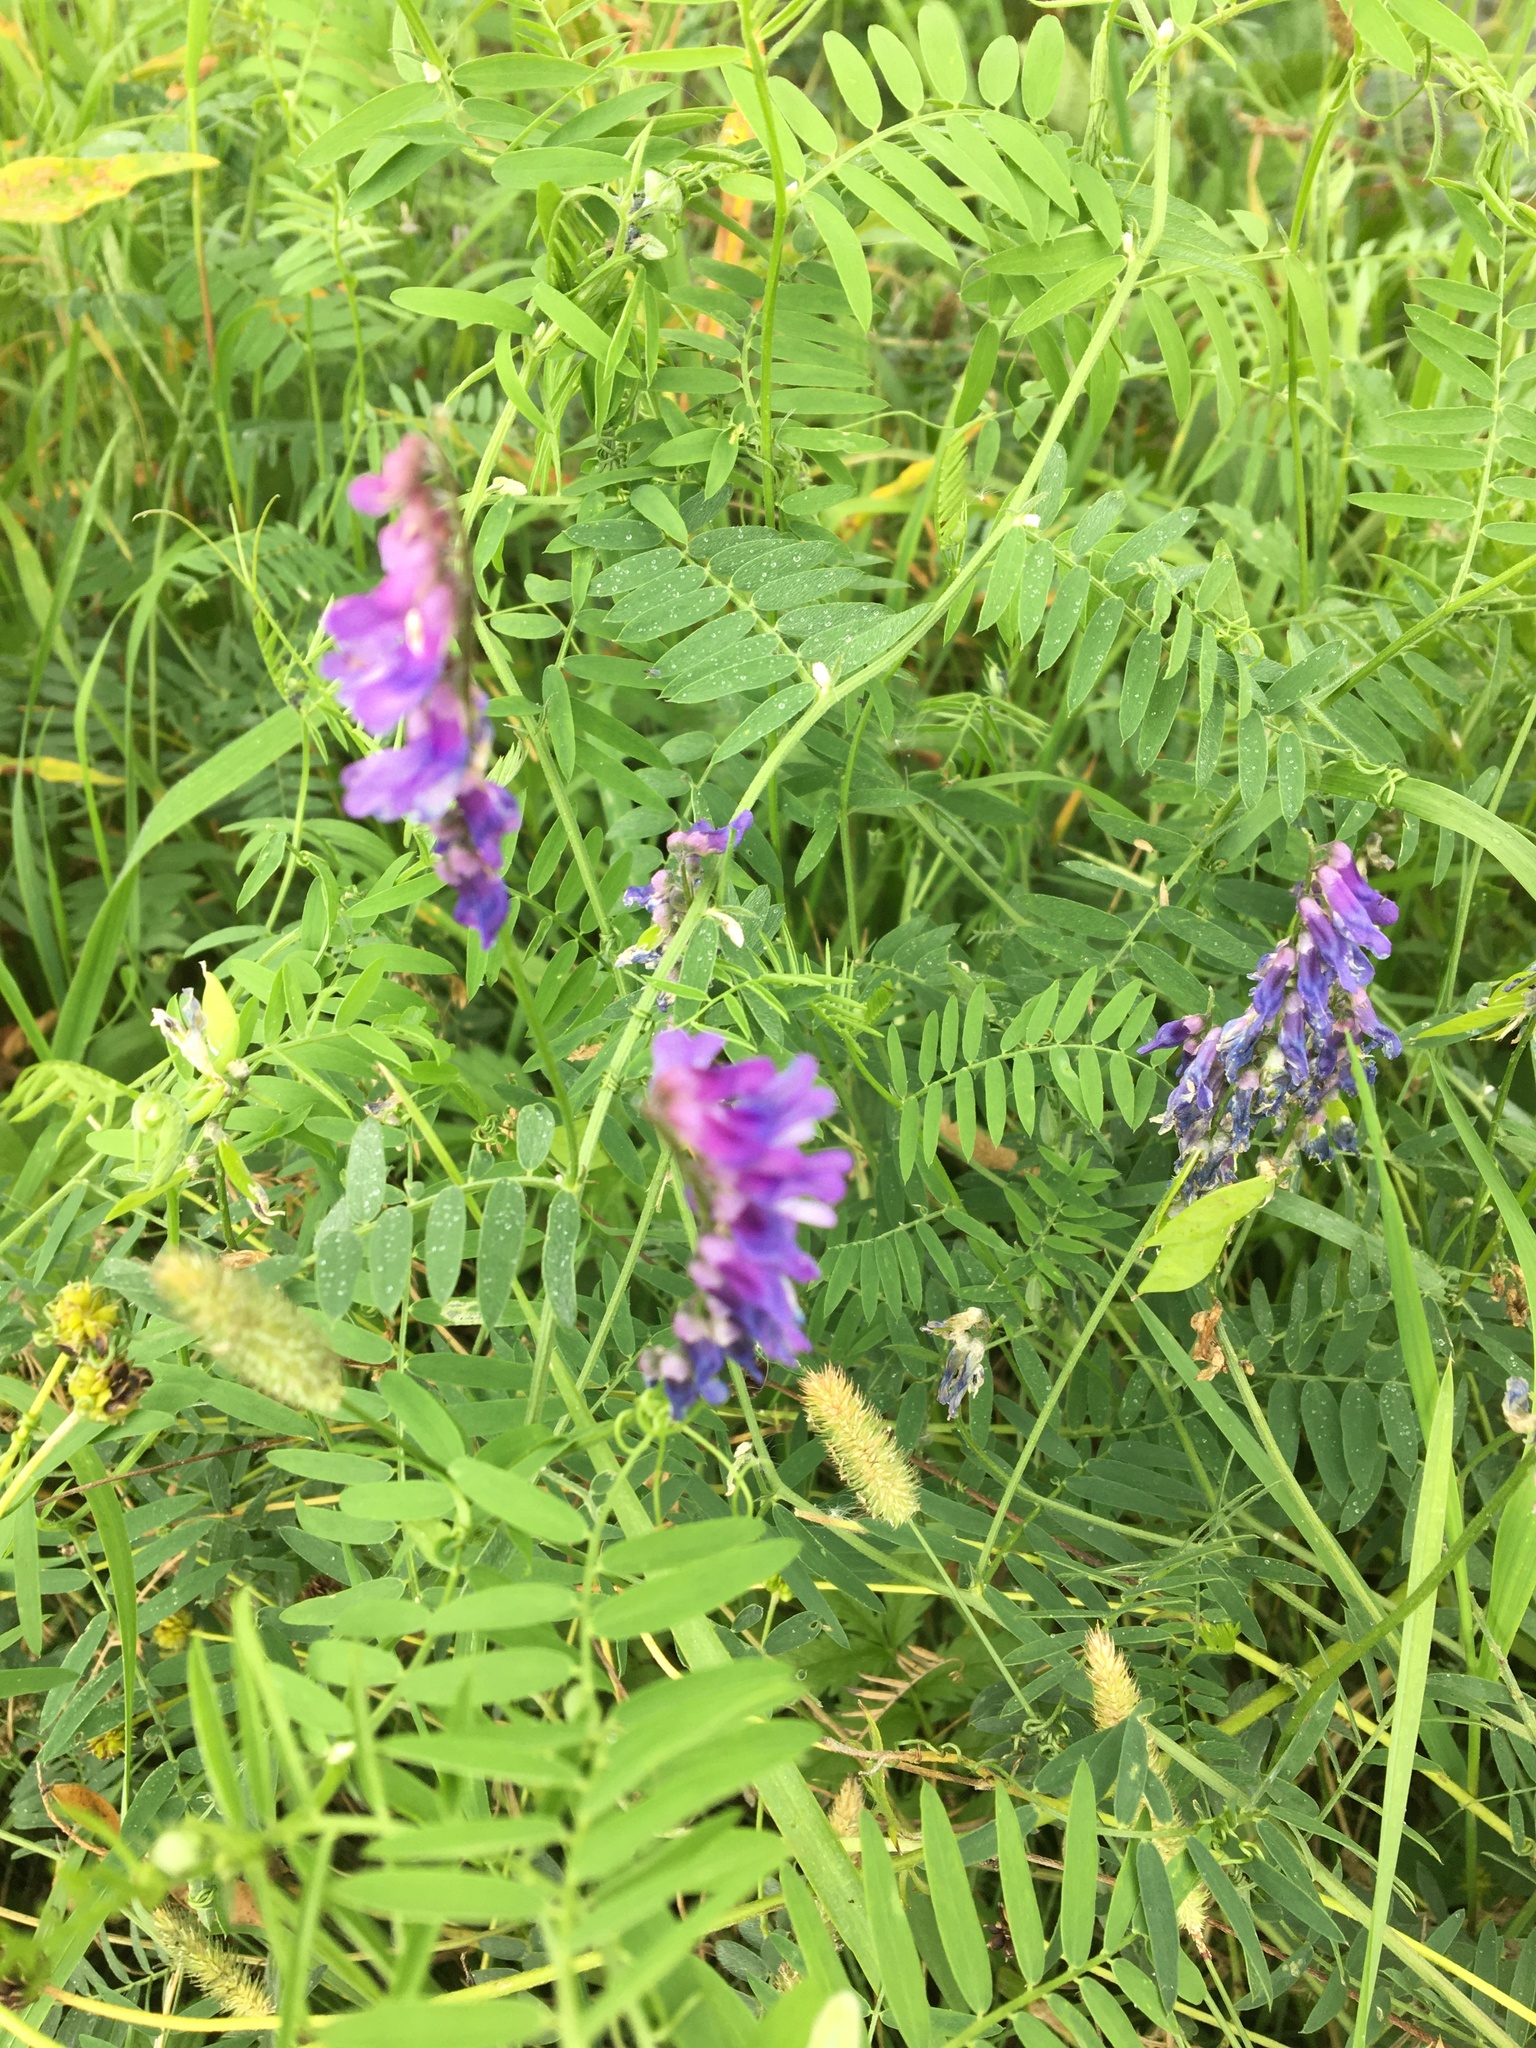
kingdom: Plantae
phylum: Tracheophyta
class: Magnoliopsida
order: Fabales
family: Fabaceae
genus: Vicia
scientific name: Vicia cracca
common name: Bird vetch
